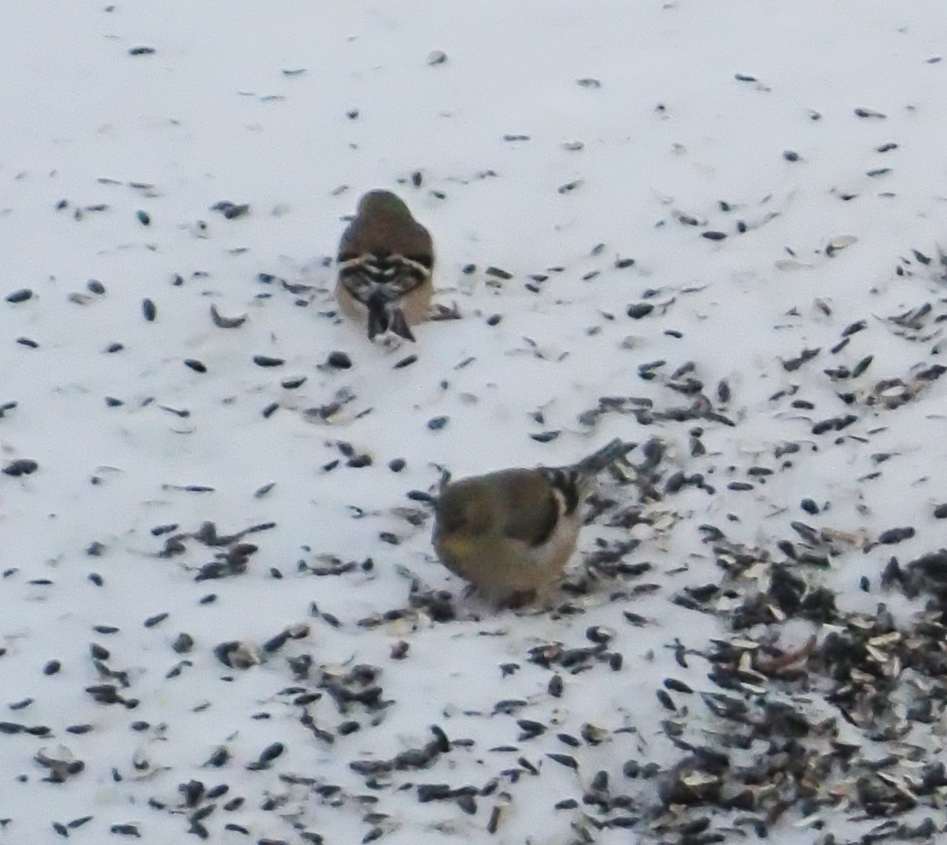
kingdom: Animalia
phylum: Chordata
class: Aves
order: Passeriformes
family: Fringillidae
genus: Spinus
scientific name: Spinus tristis
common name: American goldfinch
